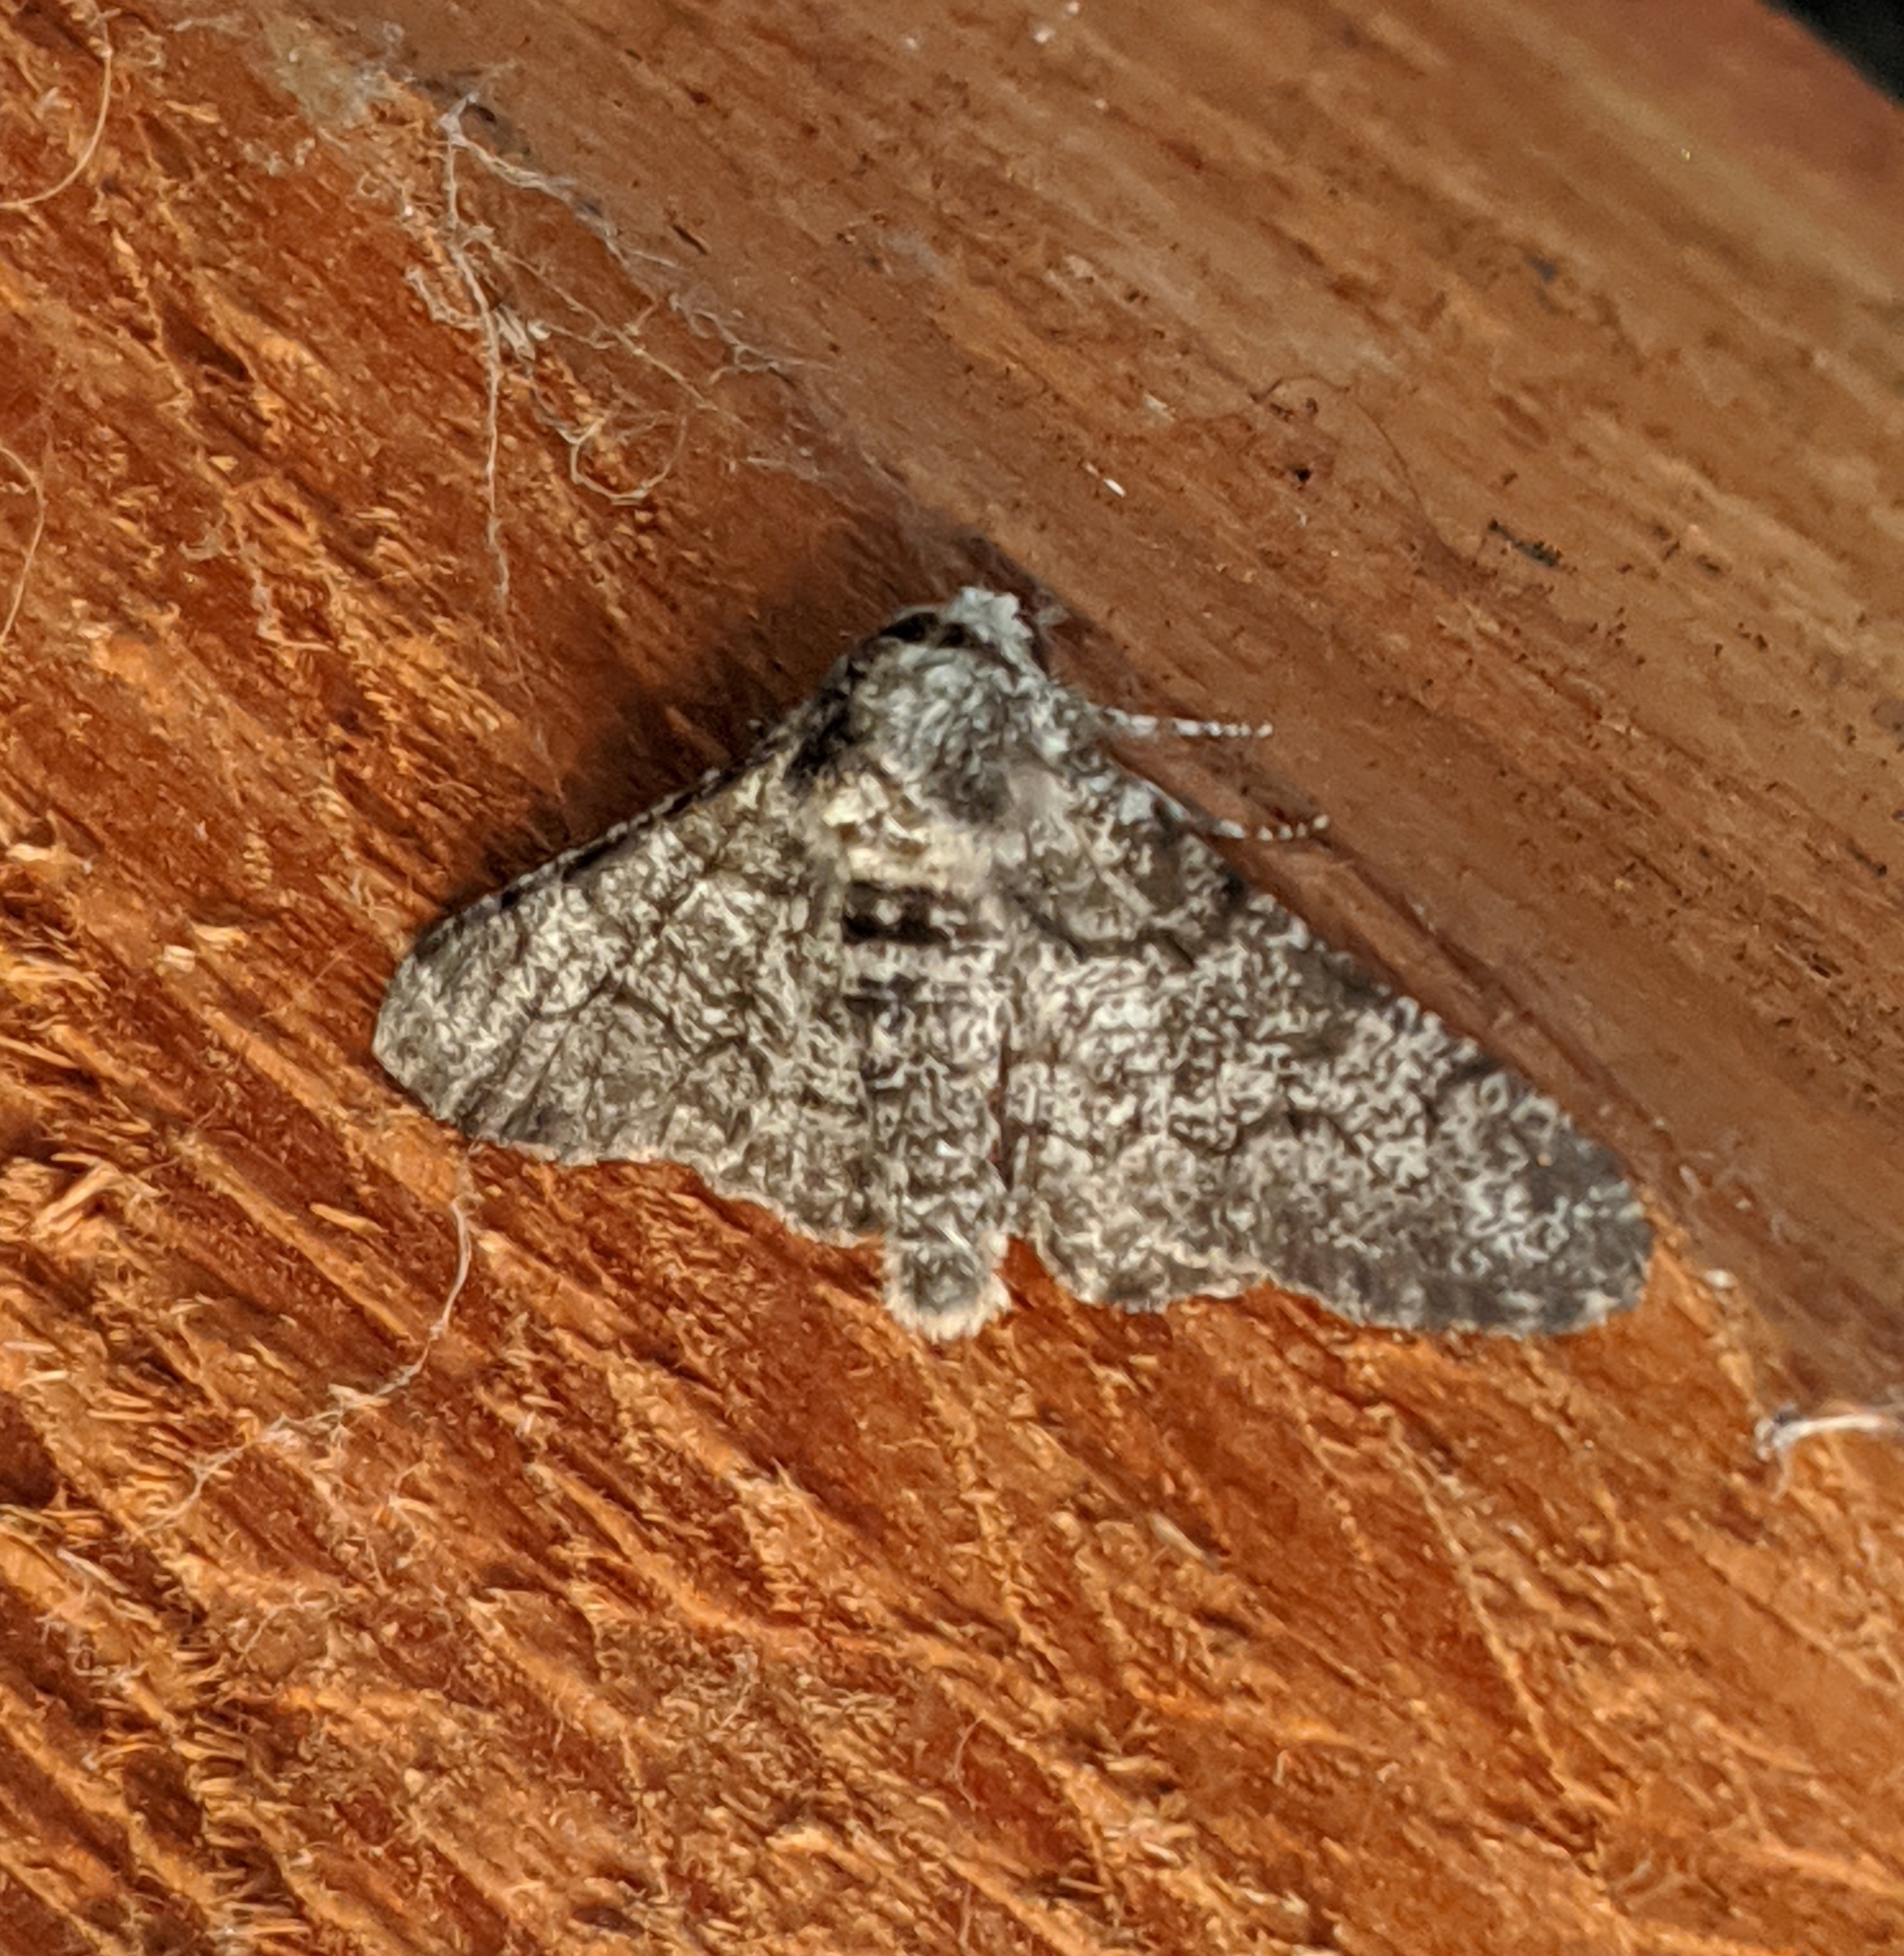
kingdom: Animalia
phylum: Arthropoda
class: Insecta
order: Lepidoptera
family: Geometridae
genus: Biston
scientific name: Biston betularia
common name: Peppered moth
